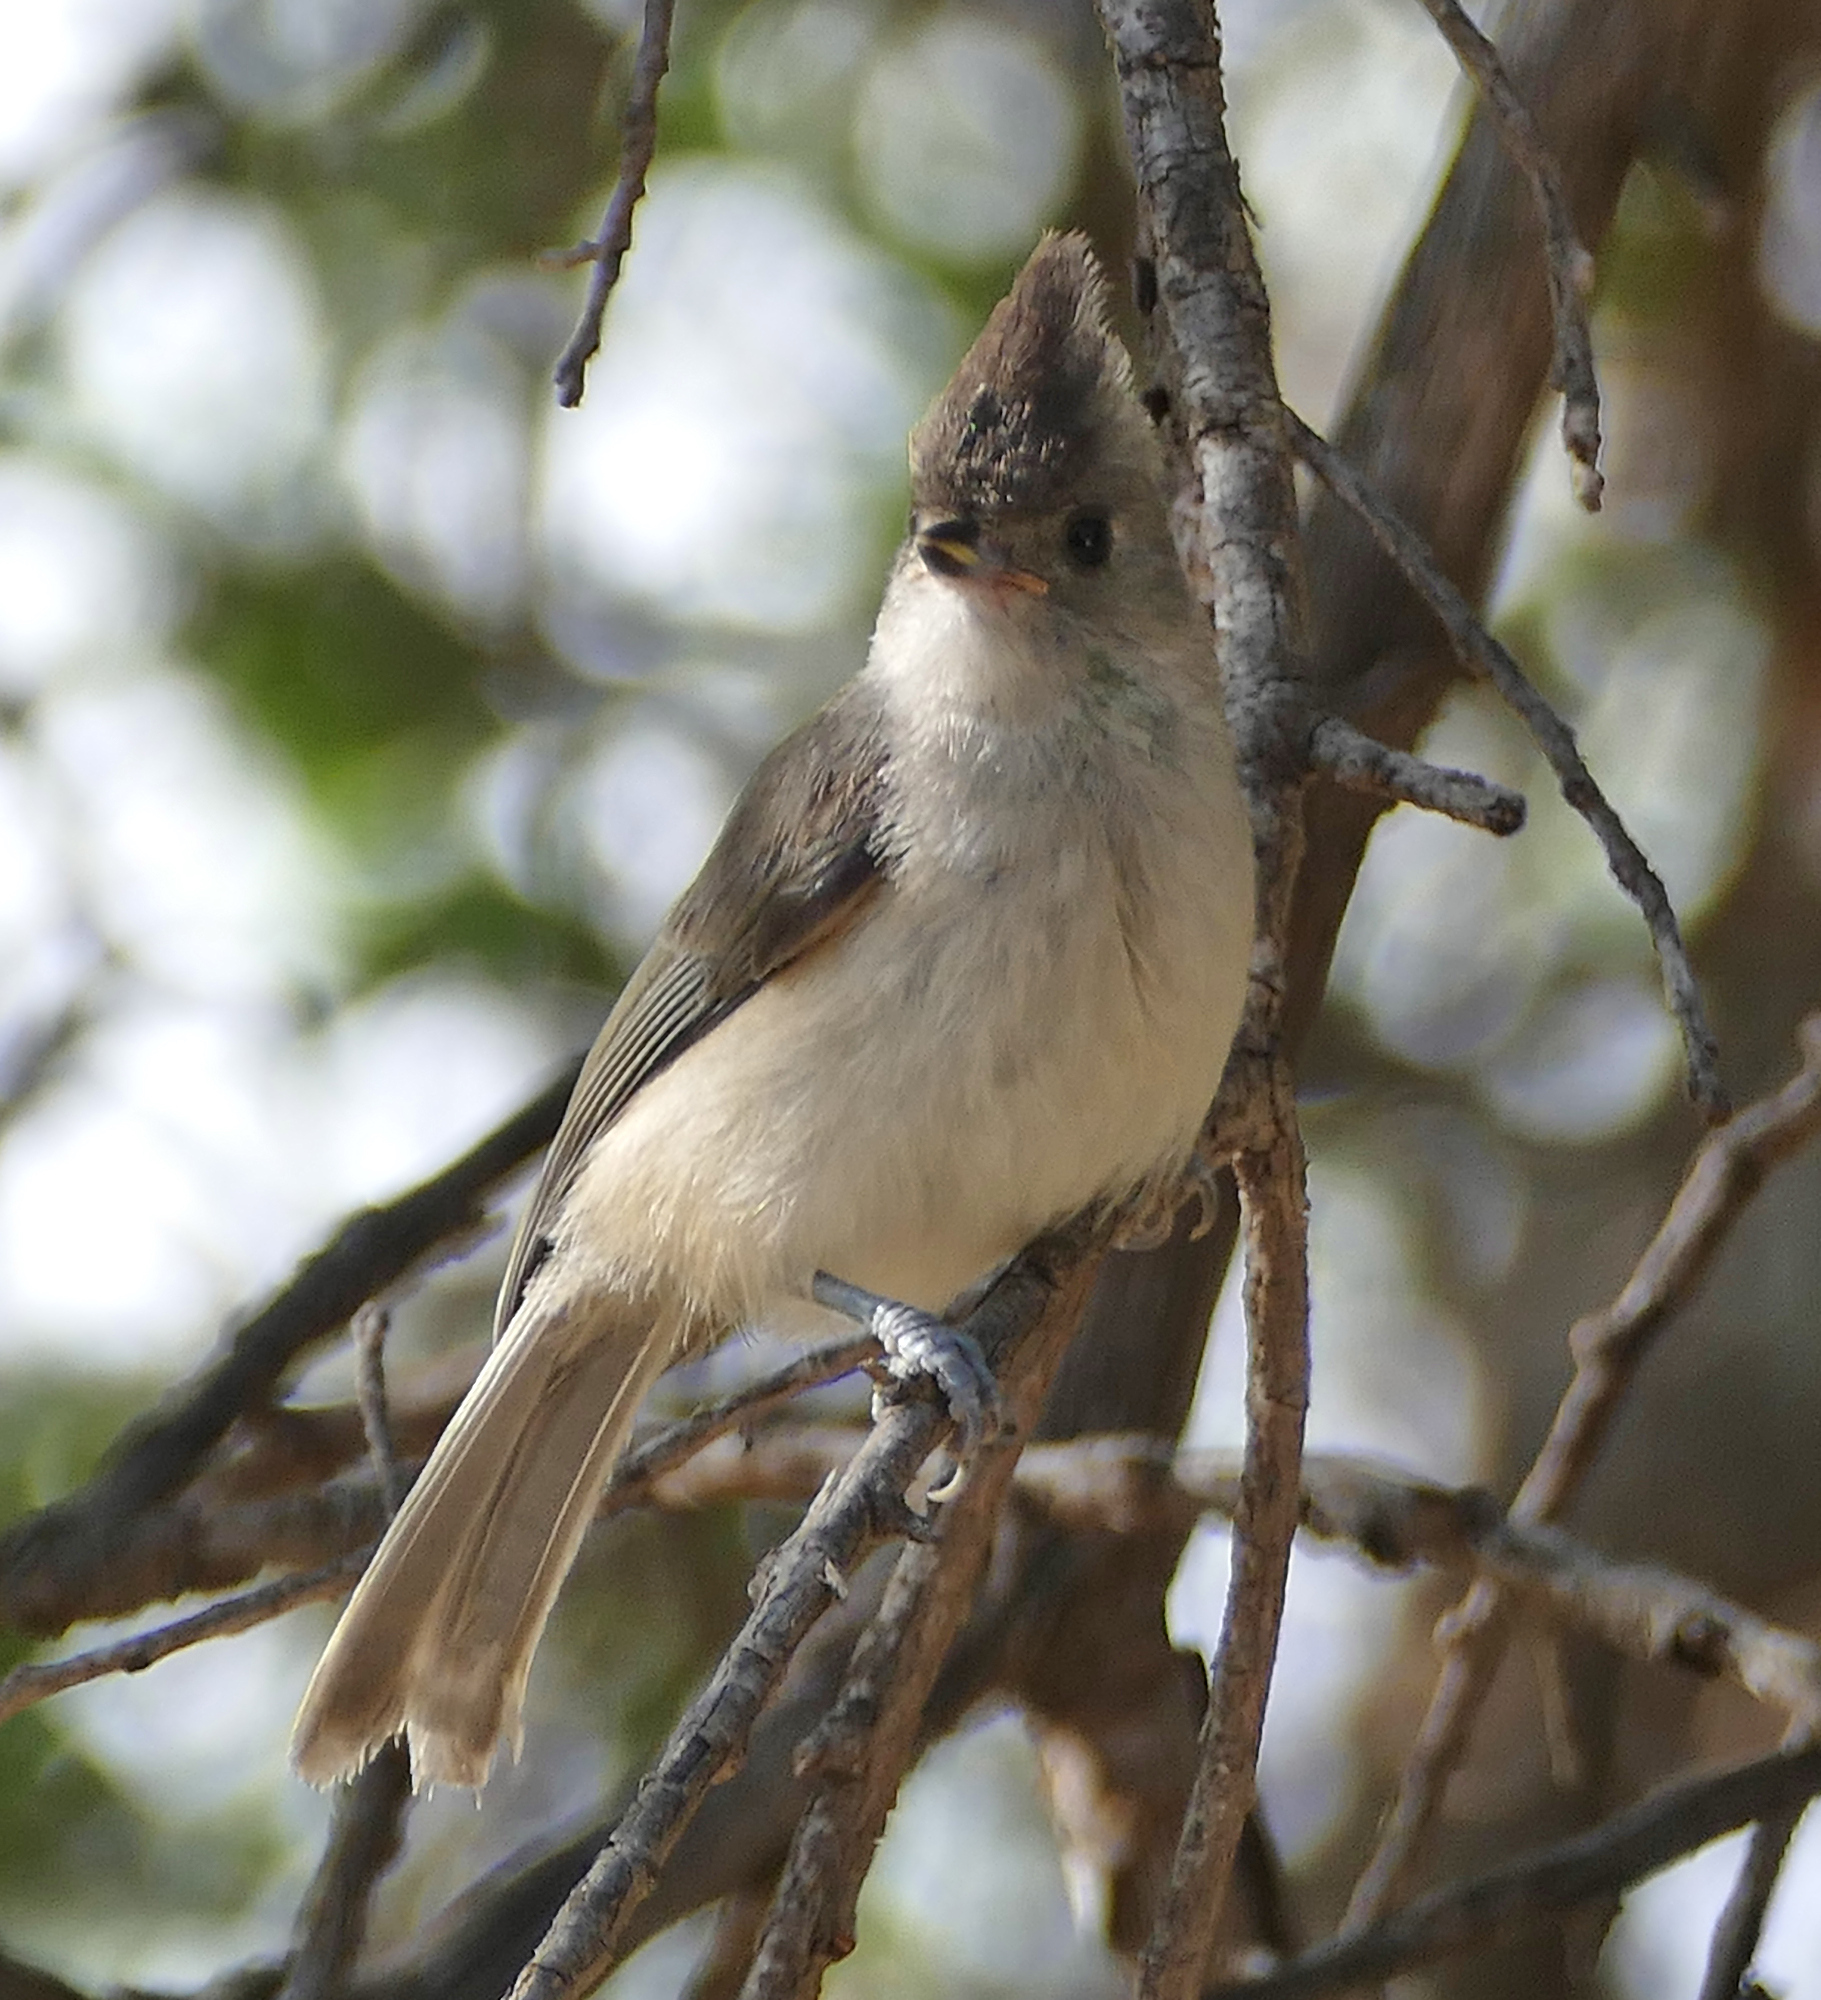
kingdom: Animalia
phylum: Chordata
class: Aves
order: Passeriformes
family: Paridae
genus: Baeolophus
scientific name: Baeolophus atricristatus
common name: Black-crested titmouse
